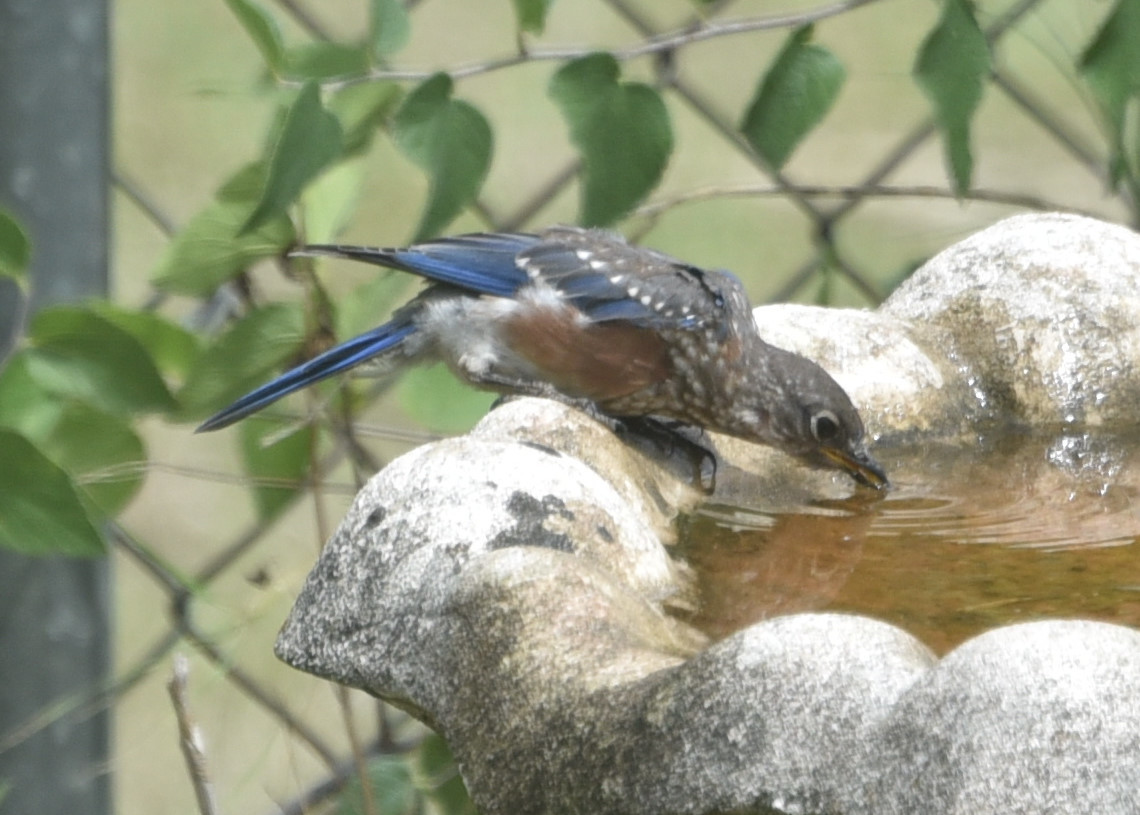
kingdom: Animalia
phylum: Chordata
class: Aves
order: Passeriformes
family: Turdidae
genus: Sialia
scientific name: Sialia sialis
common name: Eastern bluebird
